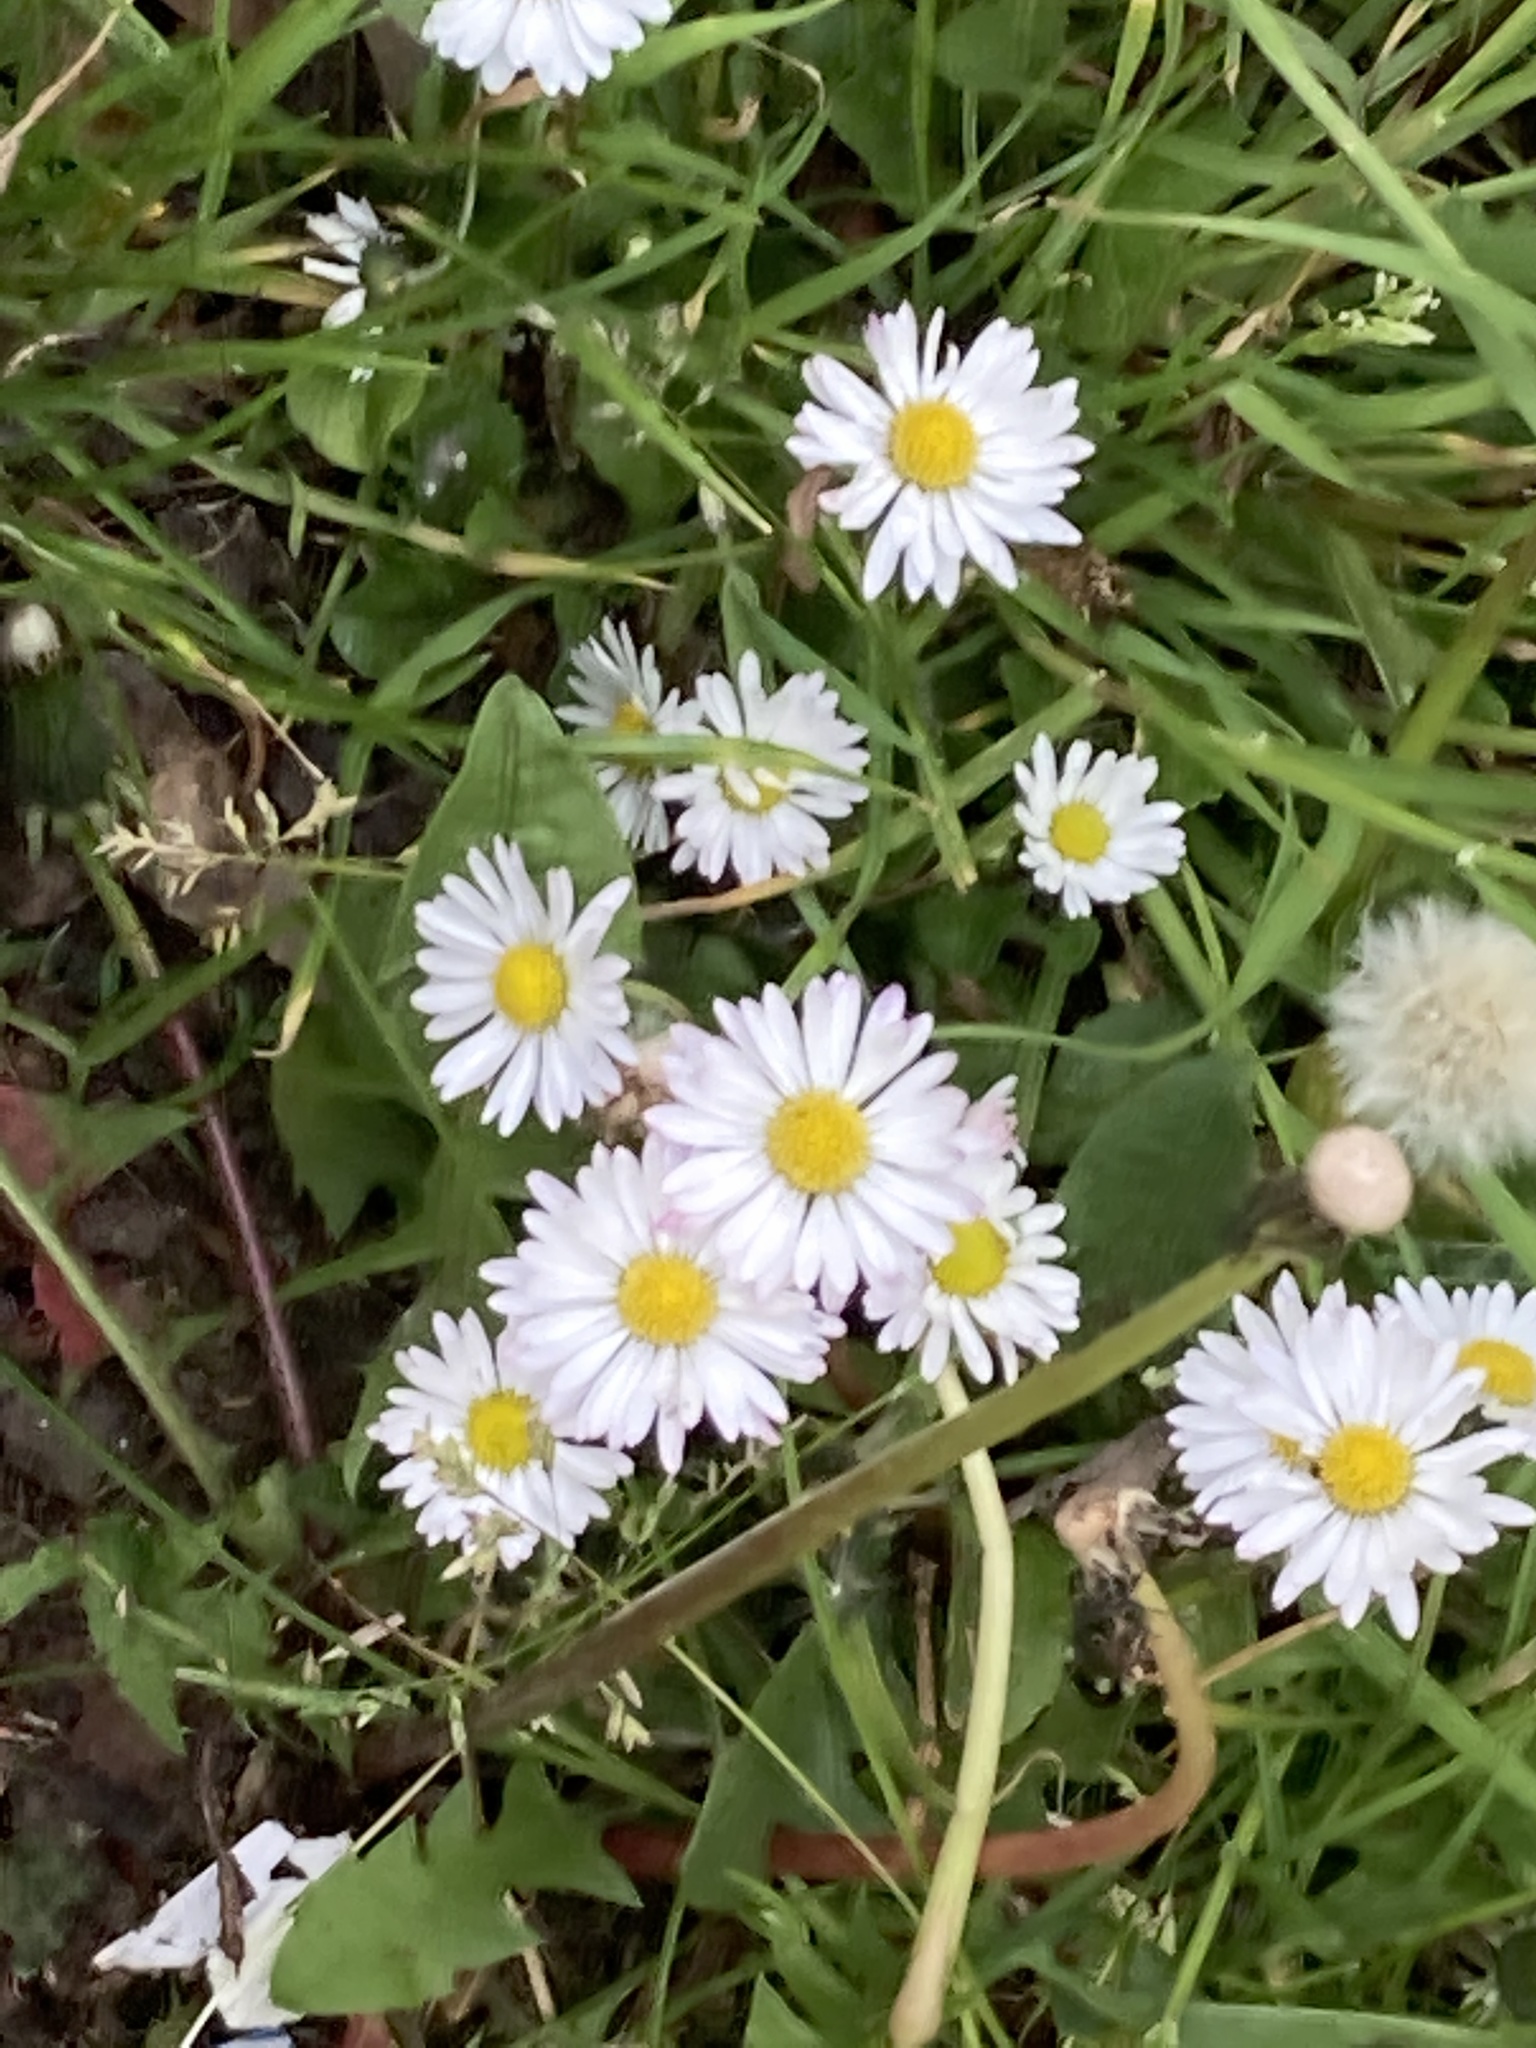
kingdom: Plantae
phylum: Tracheophyta
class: Magnoliopsida
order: Asterales
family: Asteraceae
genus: Bellis
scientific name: Bellis perennis
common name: Lawndaisy
